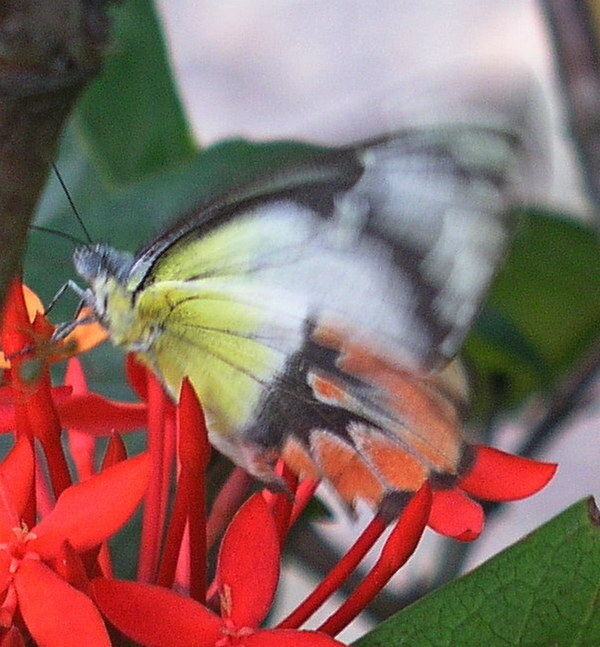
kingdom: Animalia
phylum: Arthropoda
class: Insecta
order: Lepidoptera
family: Pieridae
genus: Delias
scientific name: Delias argenthona
